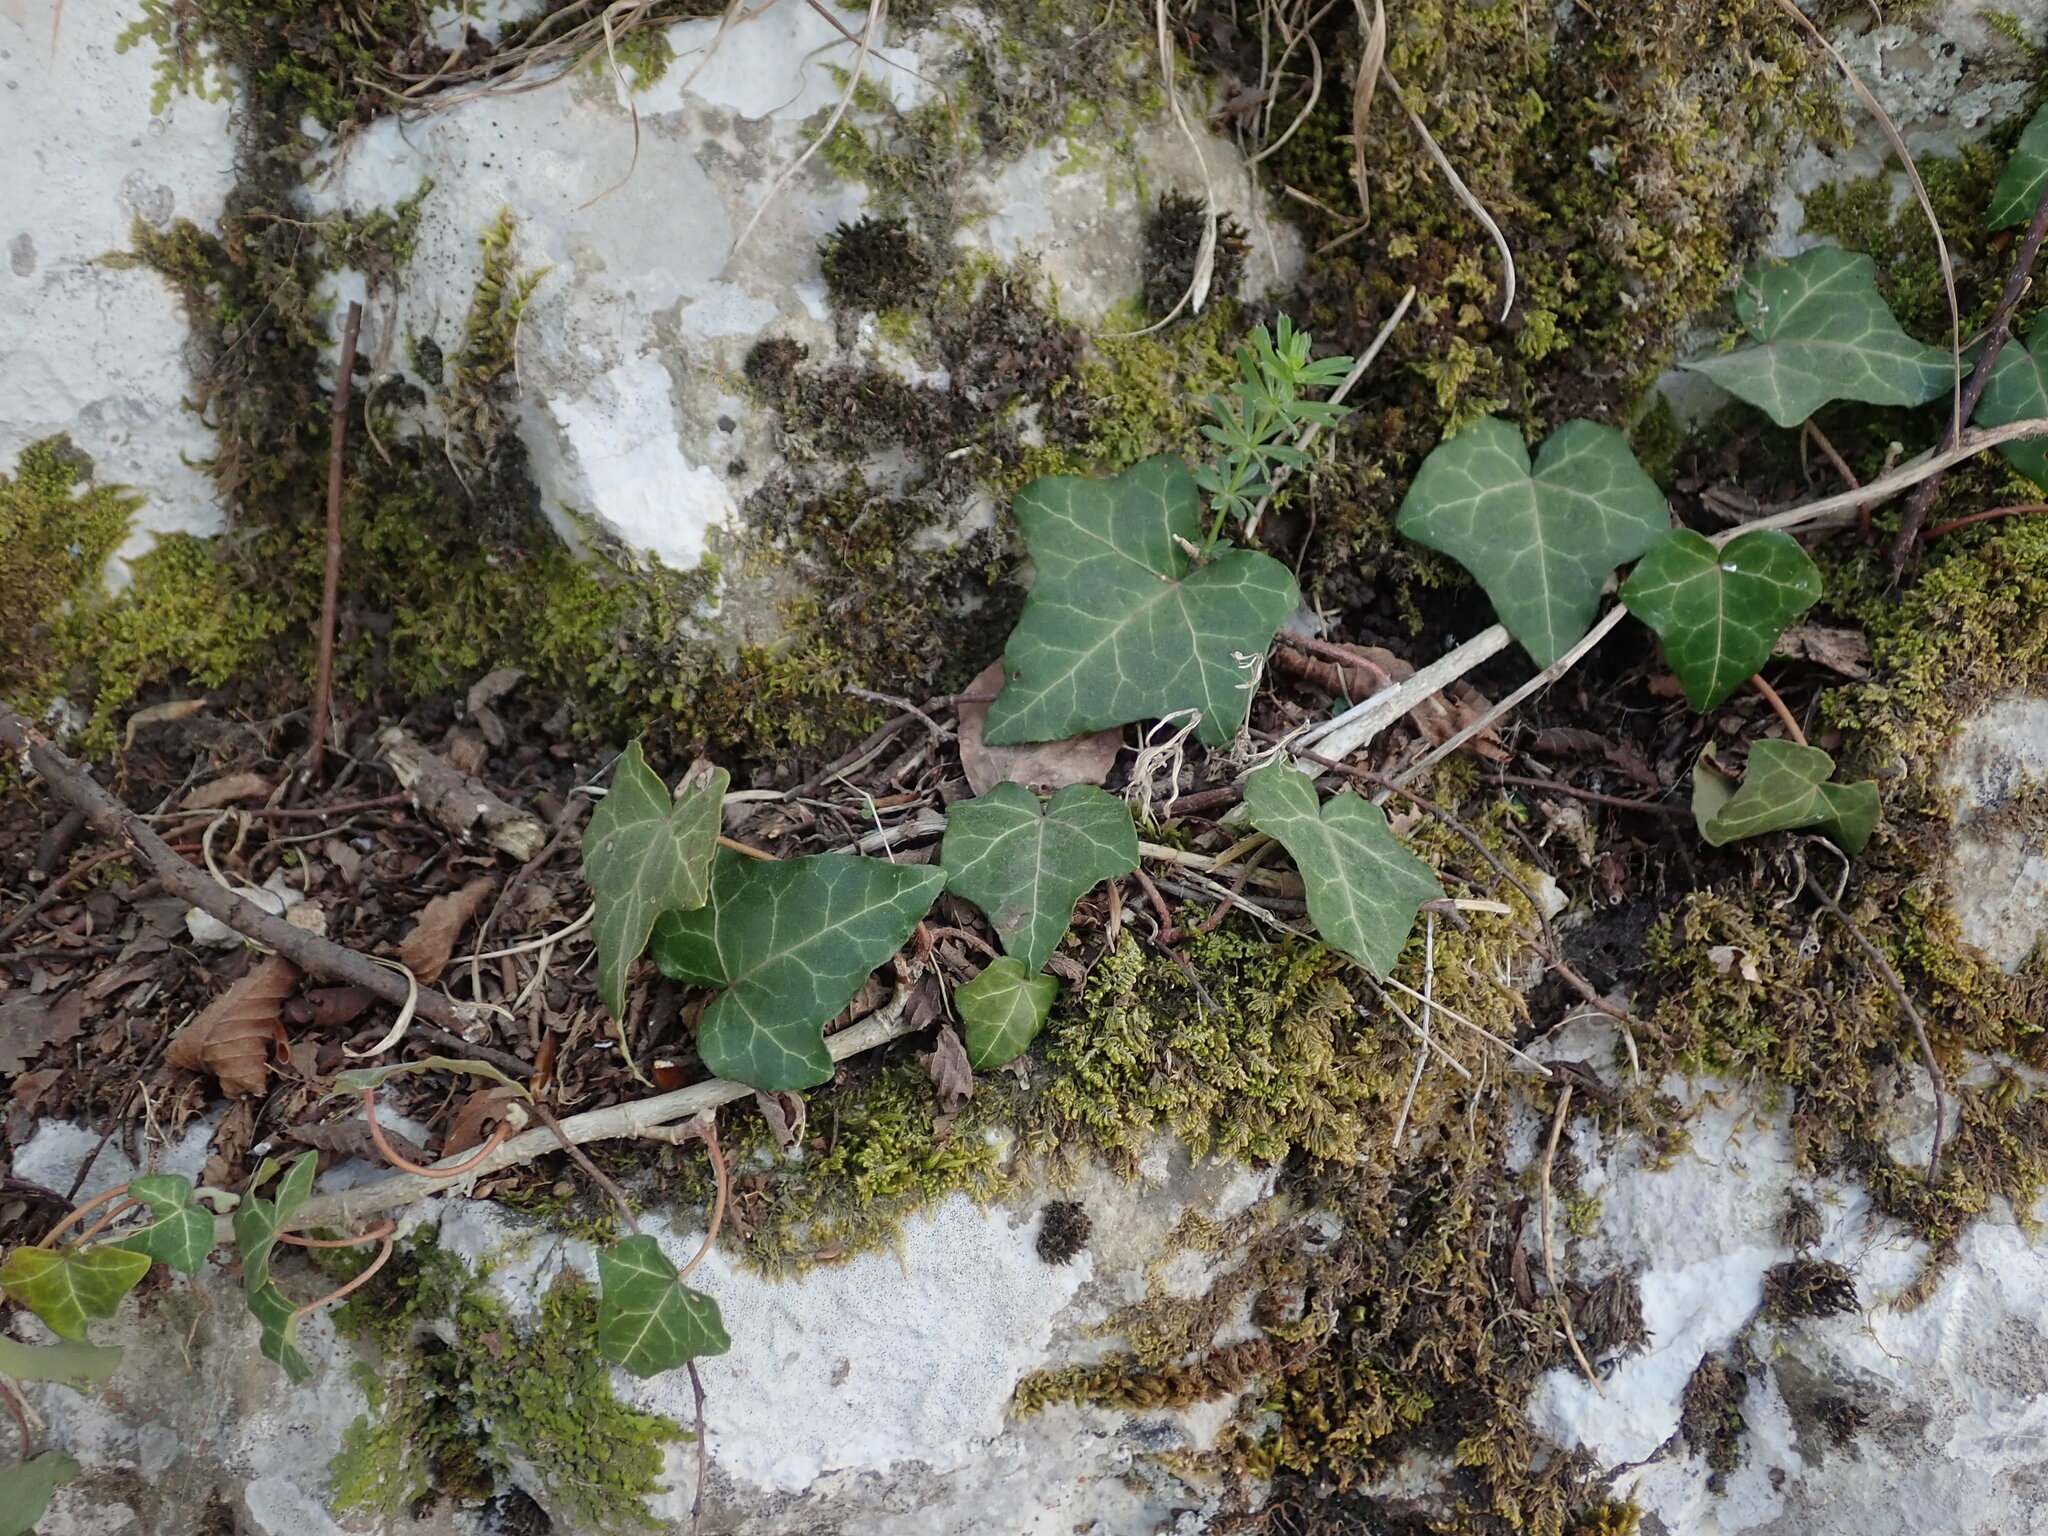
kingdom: Plantae
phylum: Tracheophyta
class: Magnoliopsida
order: Apiales
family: Araliaceae
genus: Hedera
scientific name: Hedera helix
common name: Ivy
